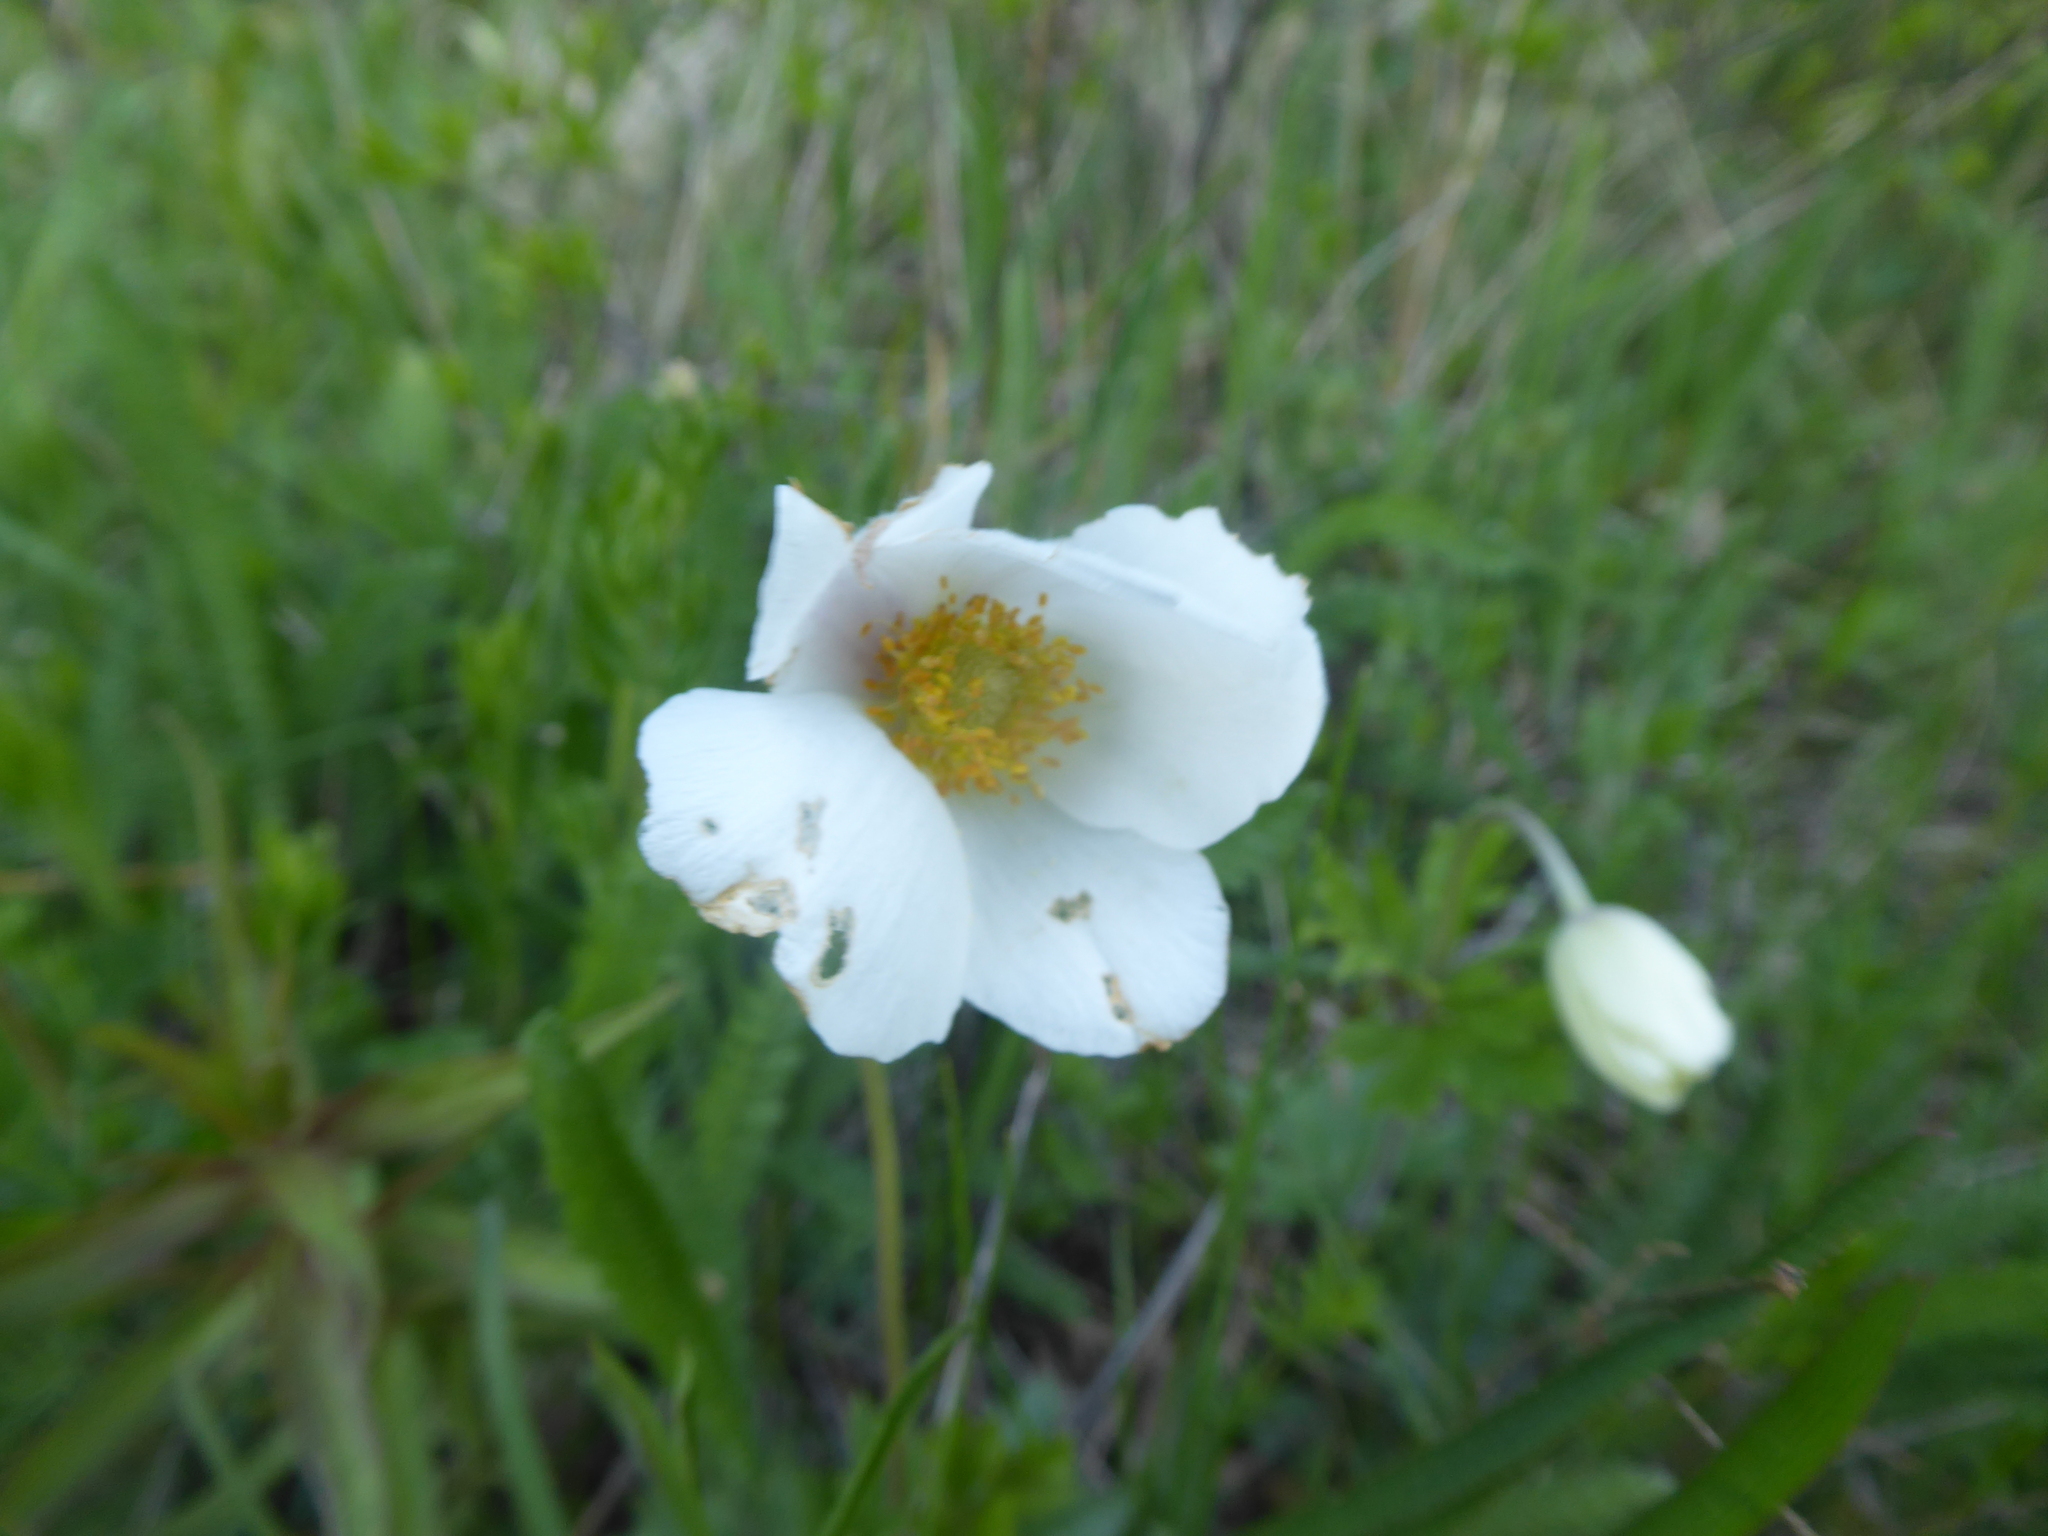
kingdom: Plantae
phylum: Tracheophyta
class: Magnoliopsida
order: Ranunculales
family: Ranunculaceae
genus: Anemone
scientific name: Anemone sylvestris
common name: Snowdrop anemone
